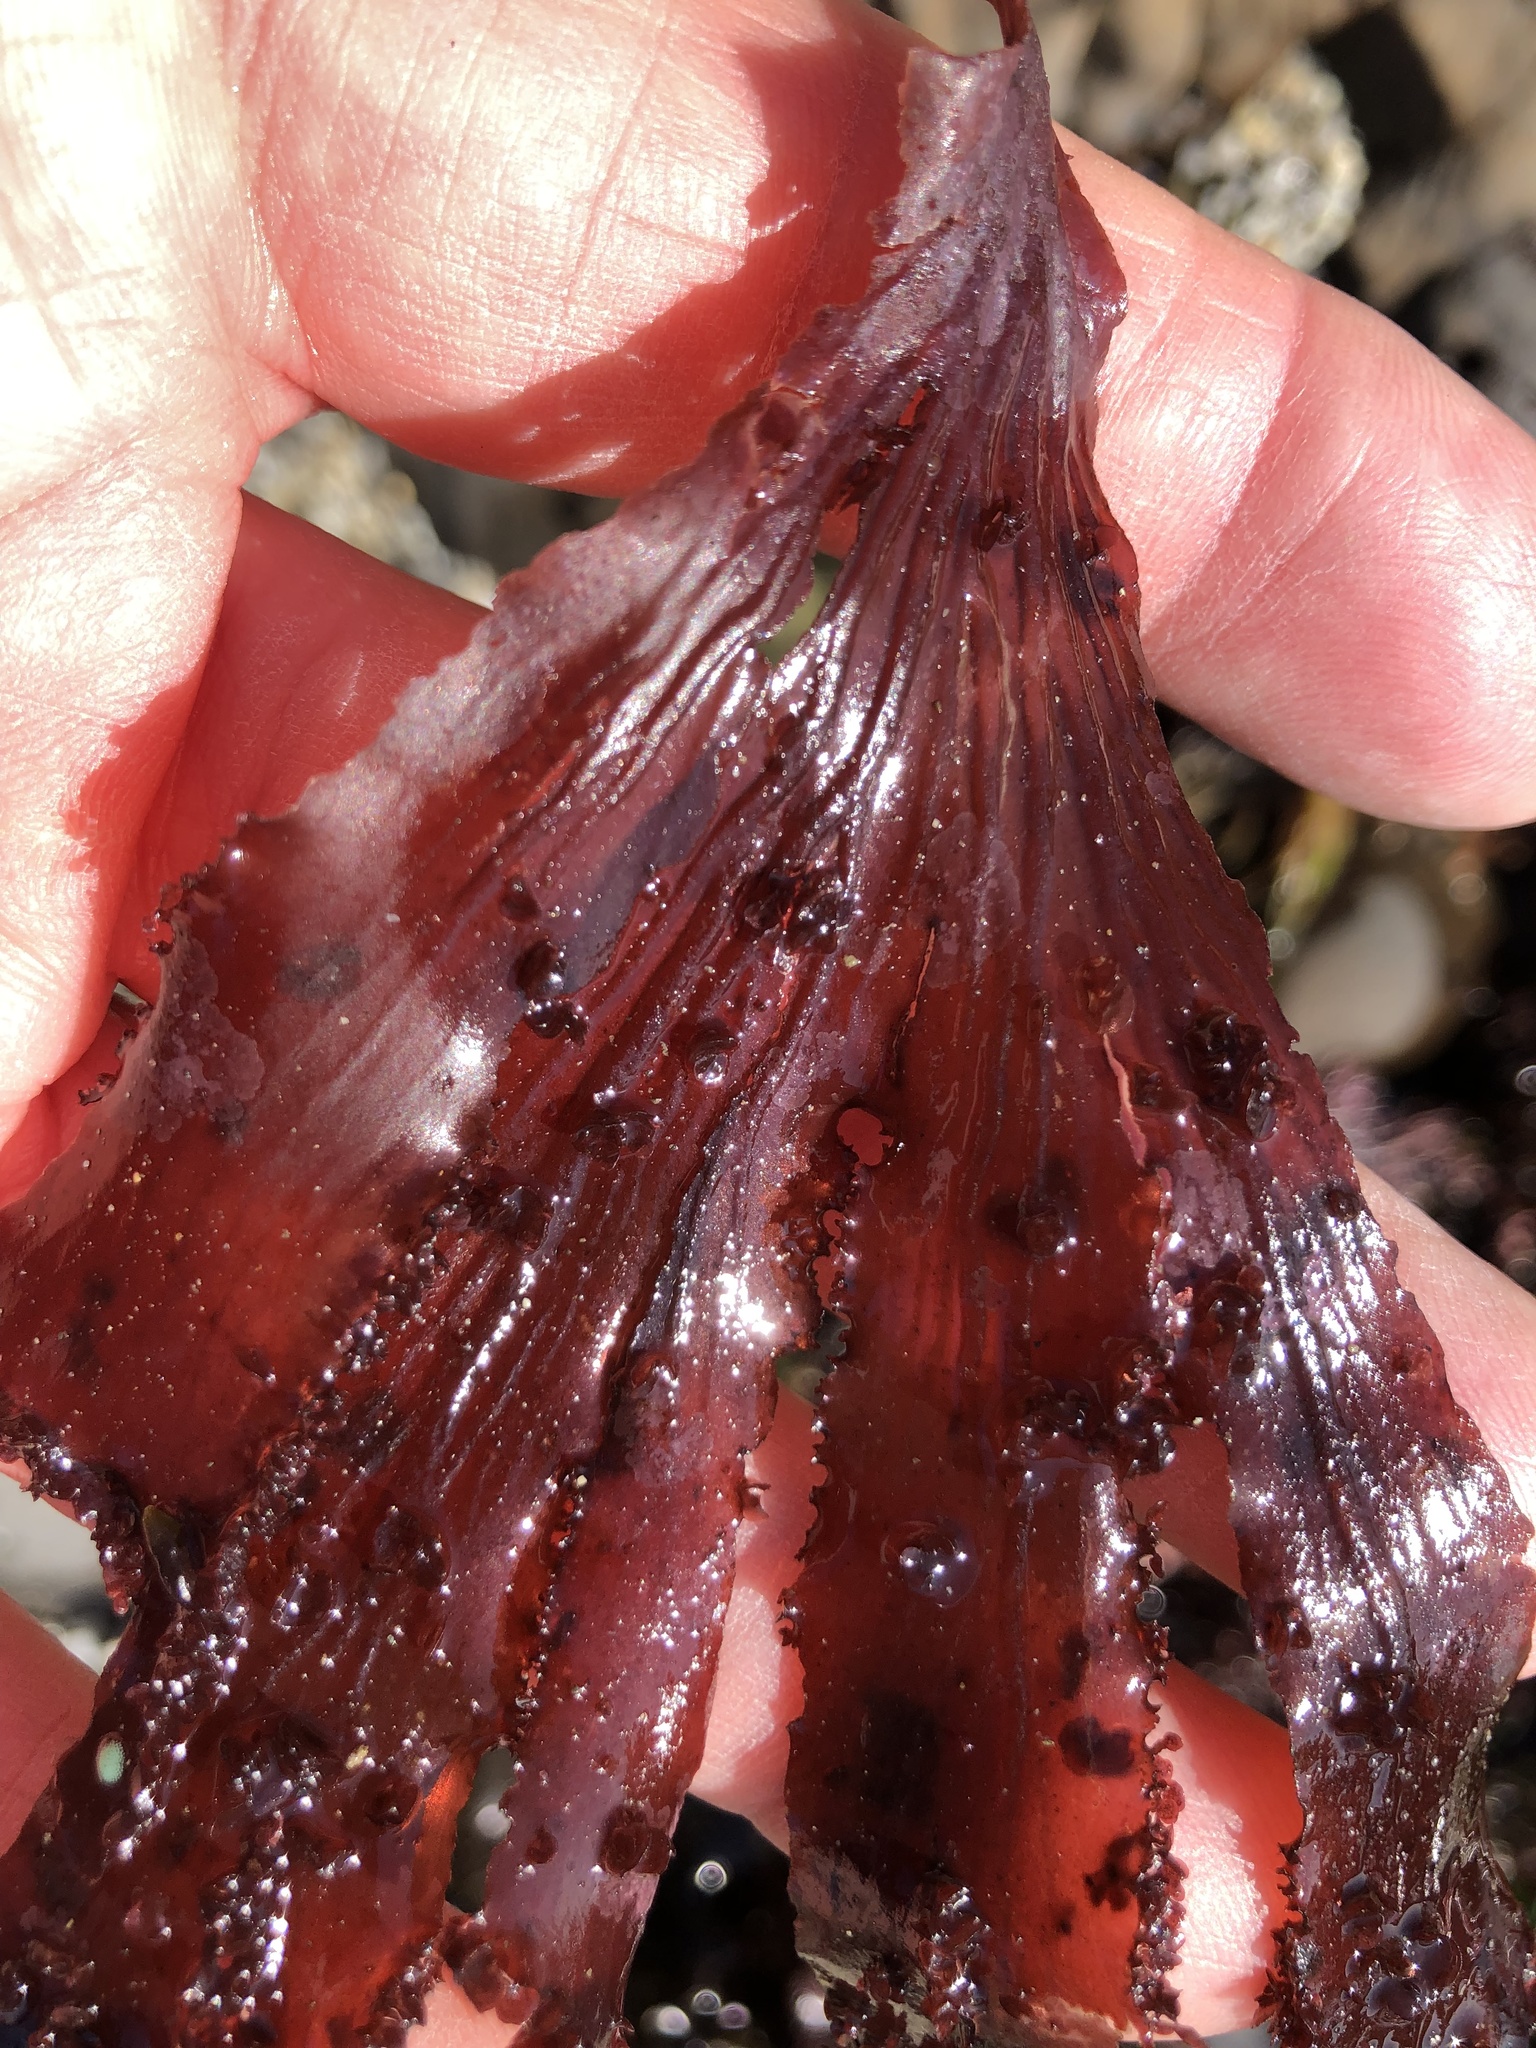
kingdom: Plantae
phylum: Rhodophyta
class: Florideophyceae
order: Ceramiales
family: Delesseriaceae
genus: Cryptopleura
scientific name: Cryptopleura ruprechtiana
